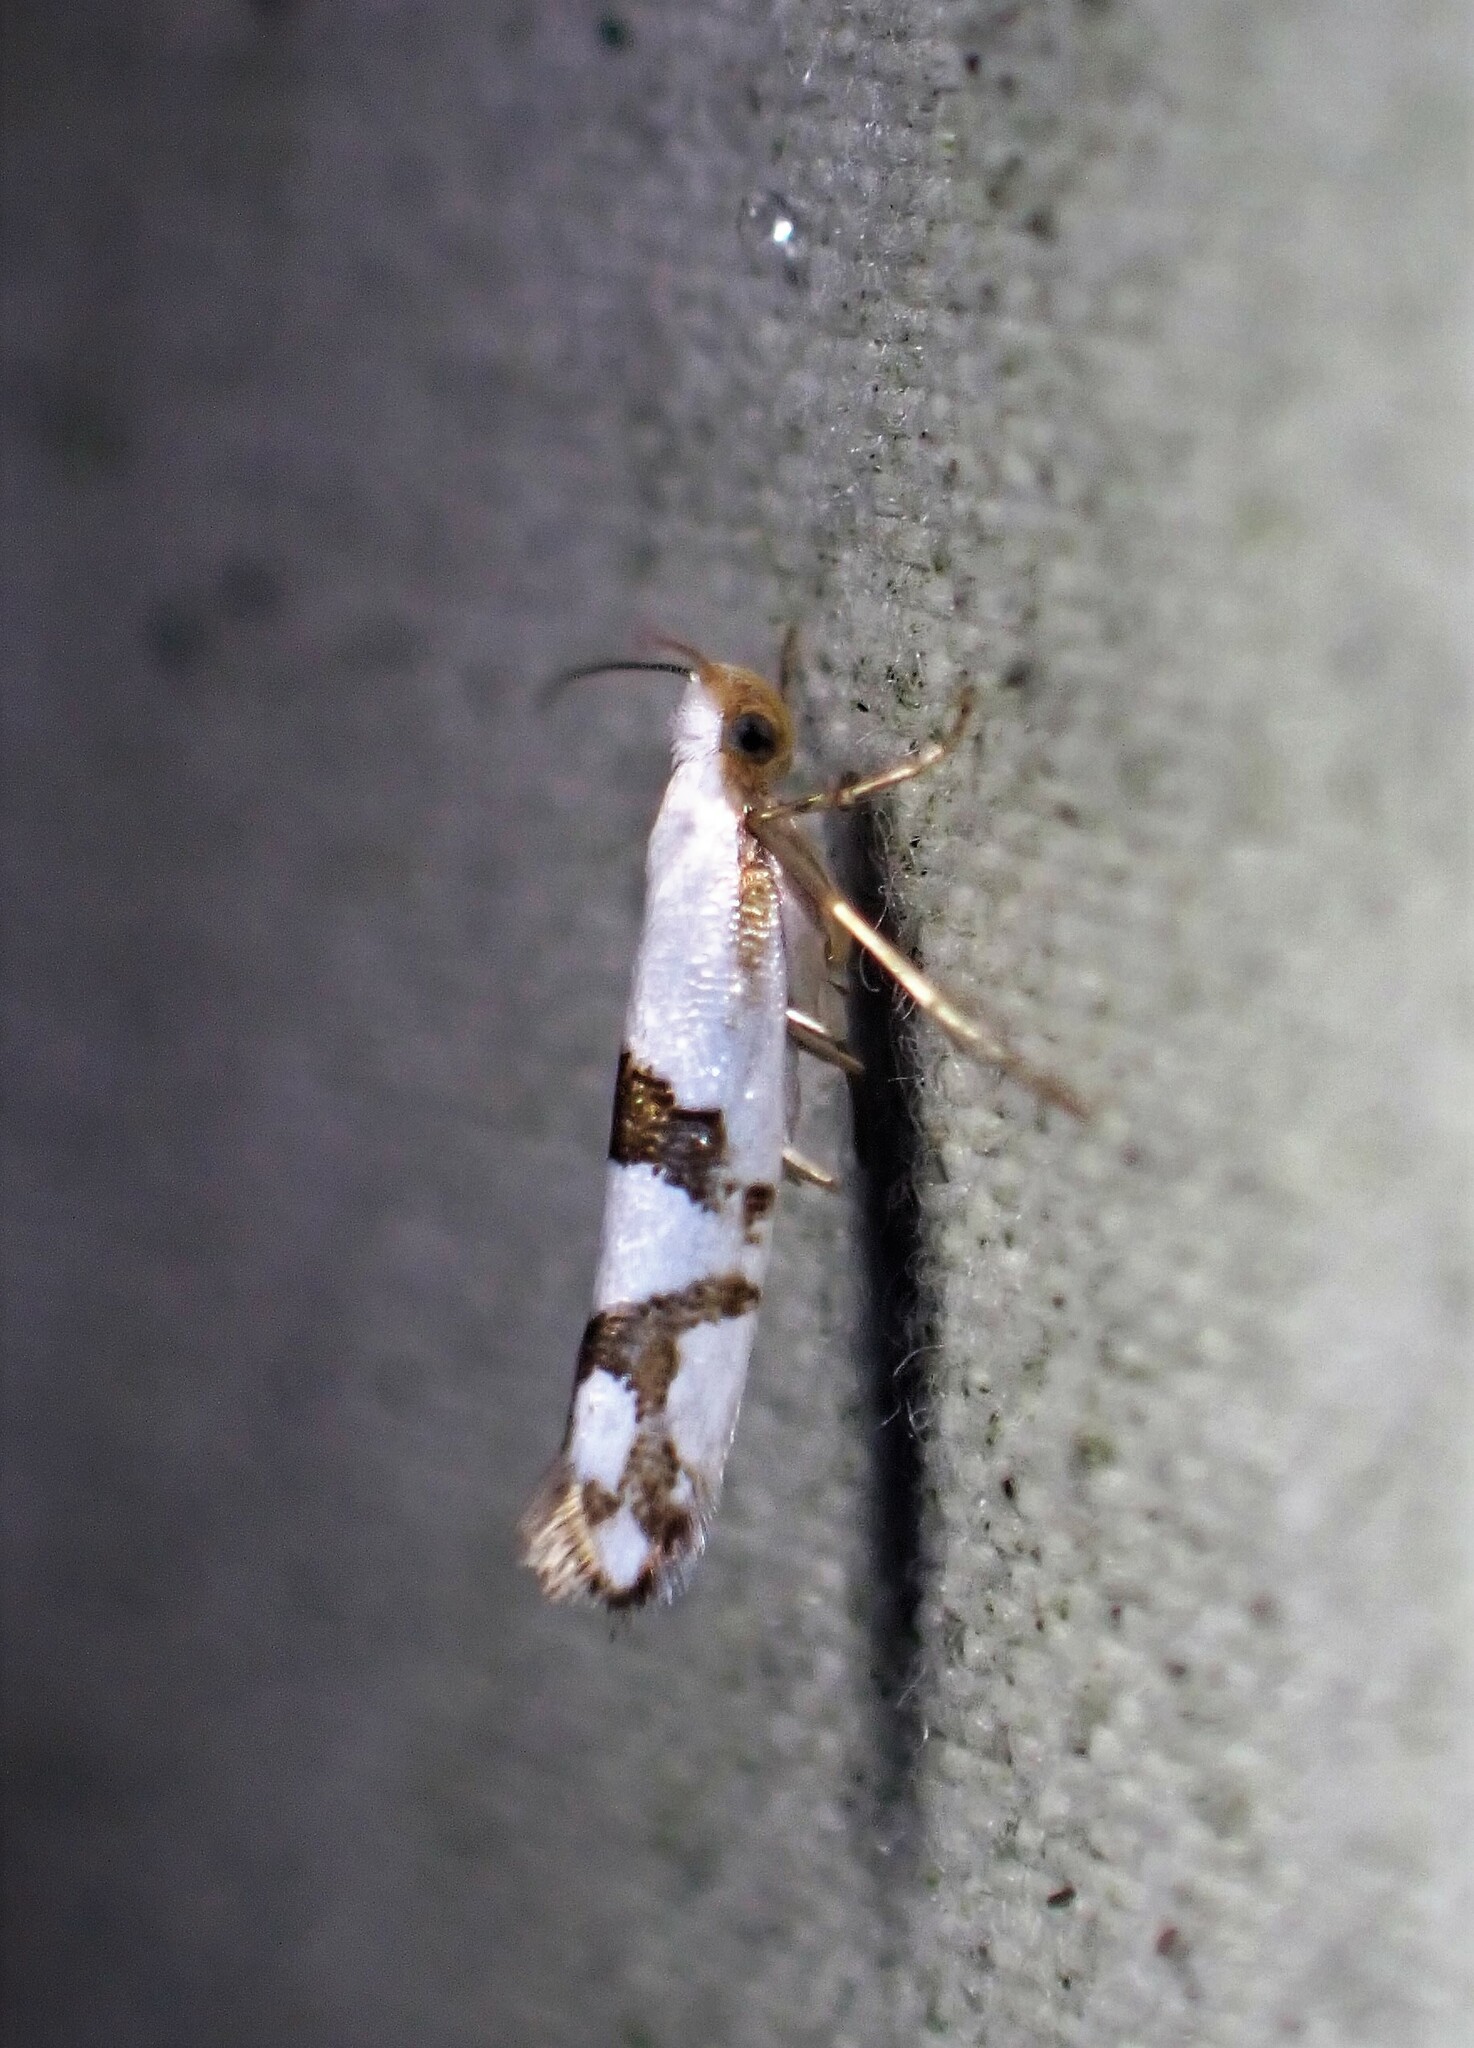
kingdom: Animalia
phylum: Arthropoda
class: Insecta
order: Lepidoptera
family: Argyresthiidae
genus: Argyresthia
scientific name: Argyresthia oreasella
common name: Cherry shoot borer moth
